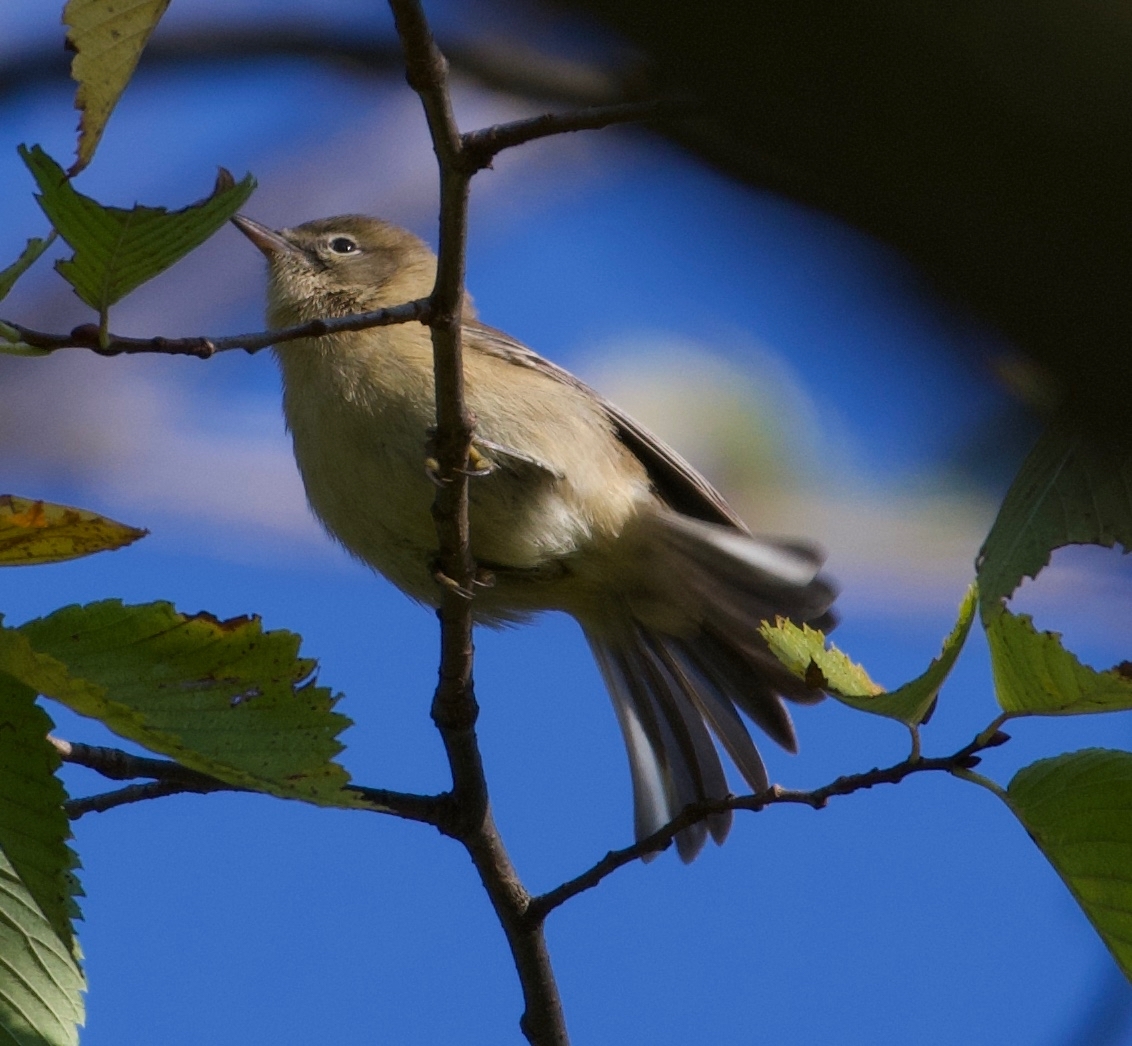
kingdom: Animalia
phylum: Chordata
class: Aves
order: Passeriformes
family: Parulidae
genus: Setophaga
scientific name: Setophaga pinus
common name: Pine warbler
